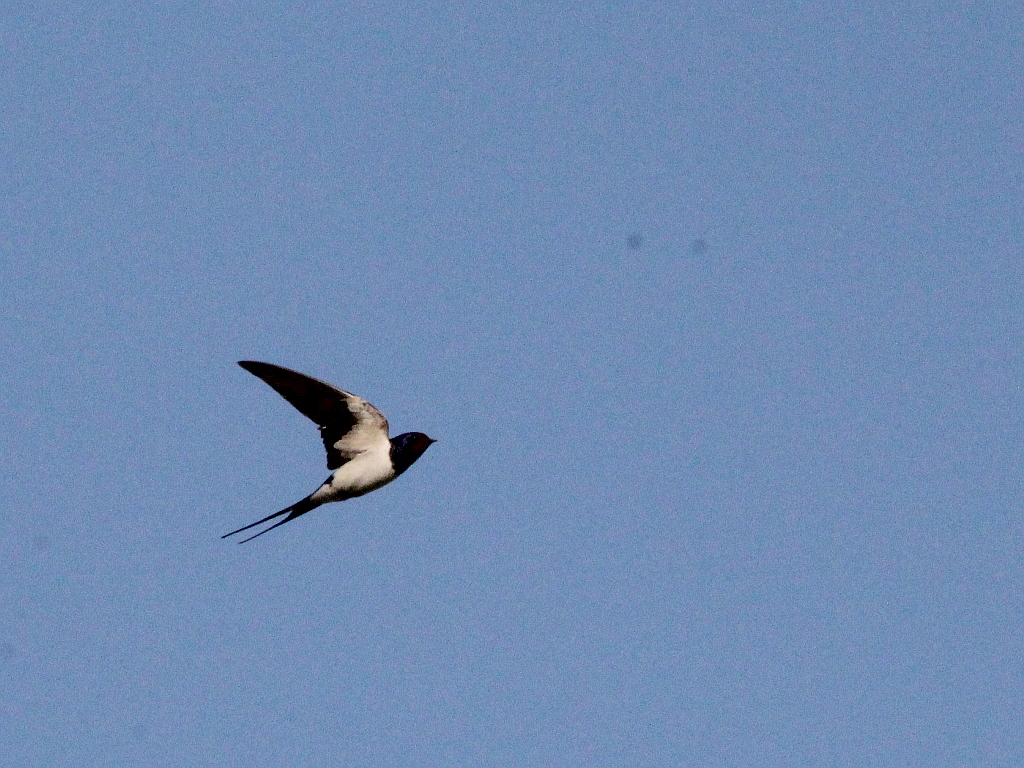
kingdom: Animalia
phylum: Chordata
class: Aves
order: Passeriformes
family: Hirundinidae
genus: Hirundo
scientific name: Hirundo rustica
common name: Barn swallow
